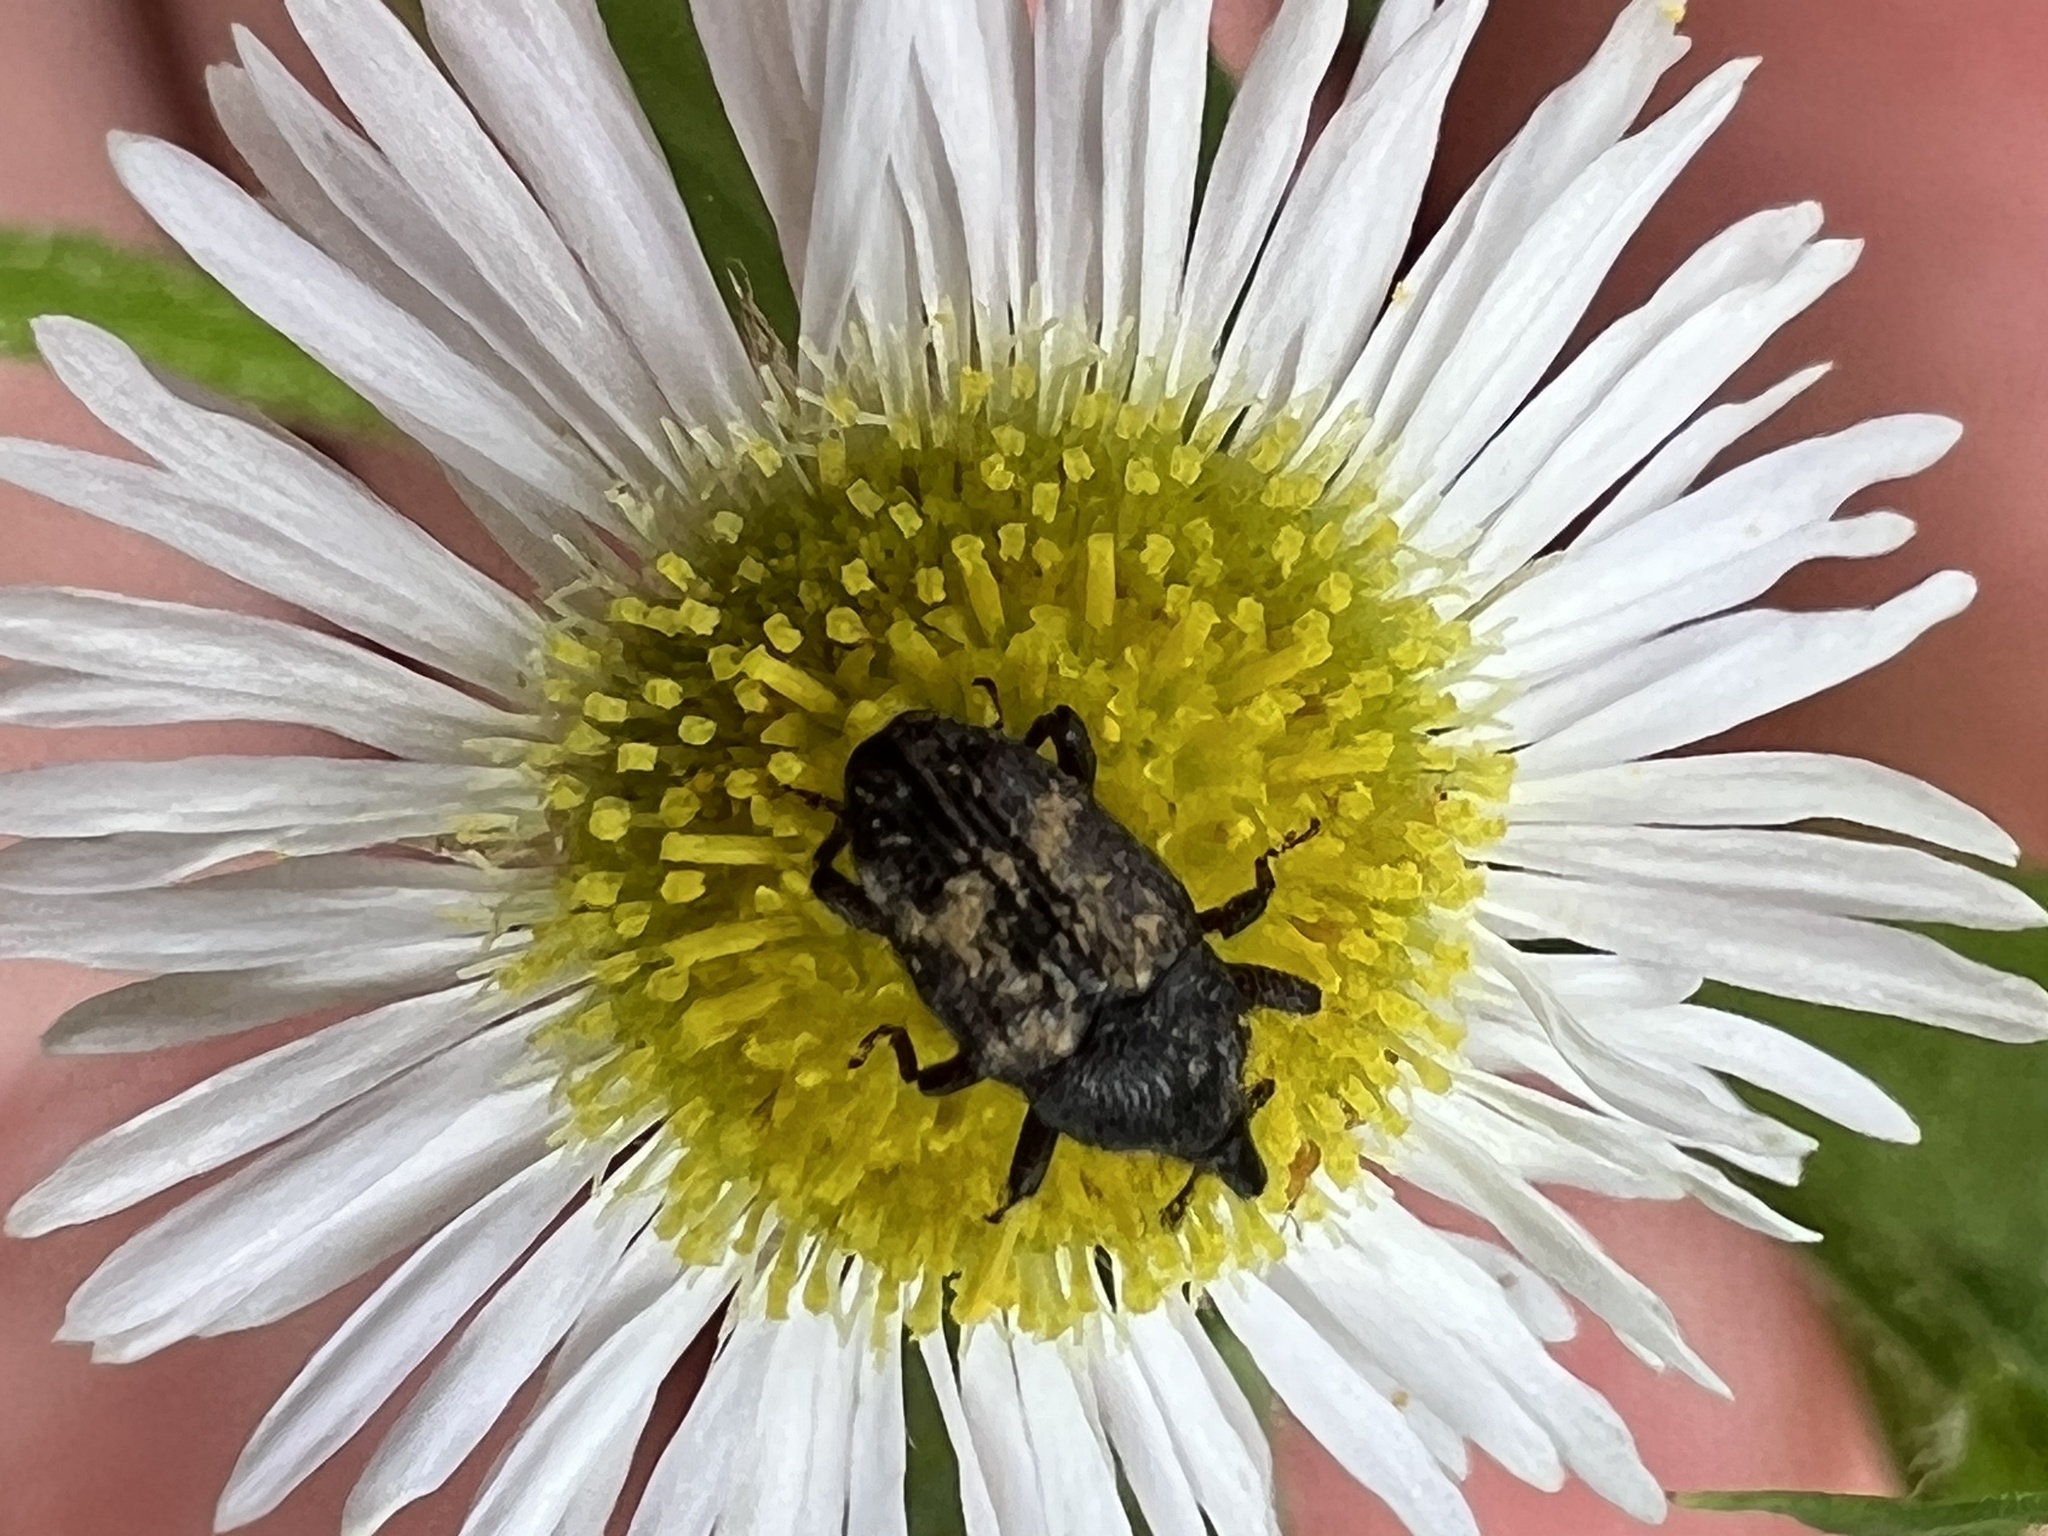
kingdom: Animalia
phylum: Arthropoda
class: Insecta
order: Coleoptera
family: Curculionidae
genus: Glyptobaris
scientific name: Glyptobaris lecontei
